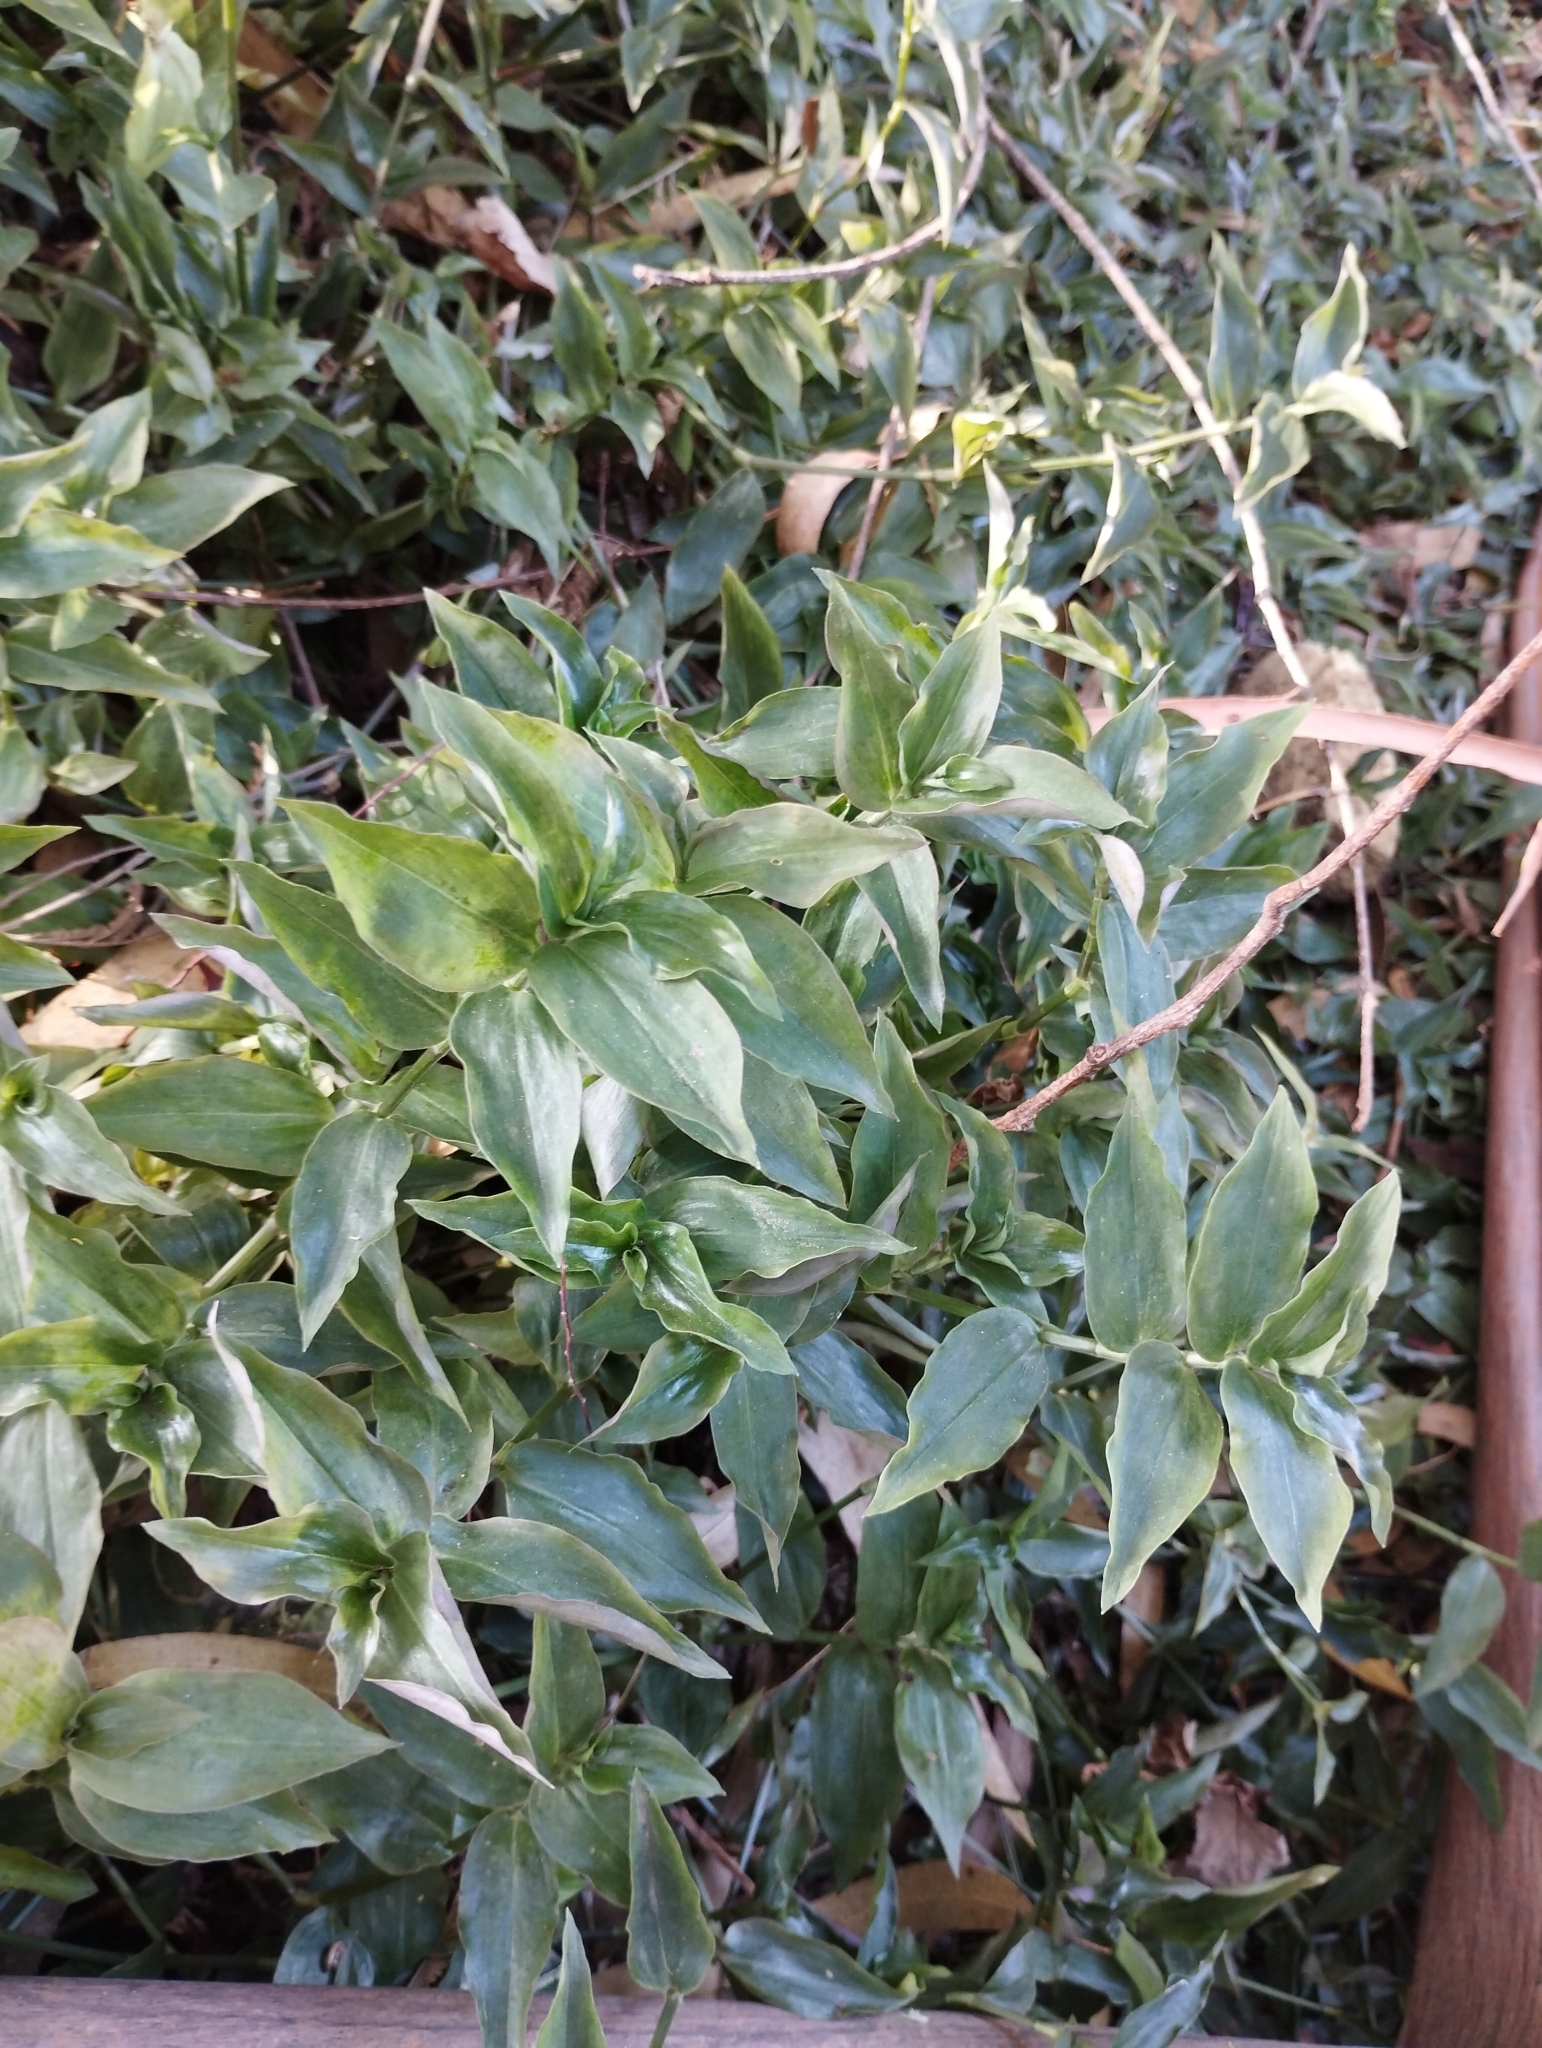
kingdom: Plantae
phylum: Tracheophyta
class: Liliopsida
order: Commelinales
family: Commelinaceae
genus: Tradescantia
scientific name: Tradescantia fluminensis
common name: Wandering-jew
